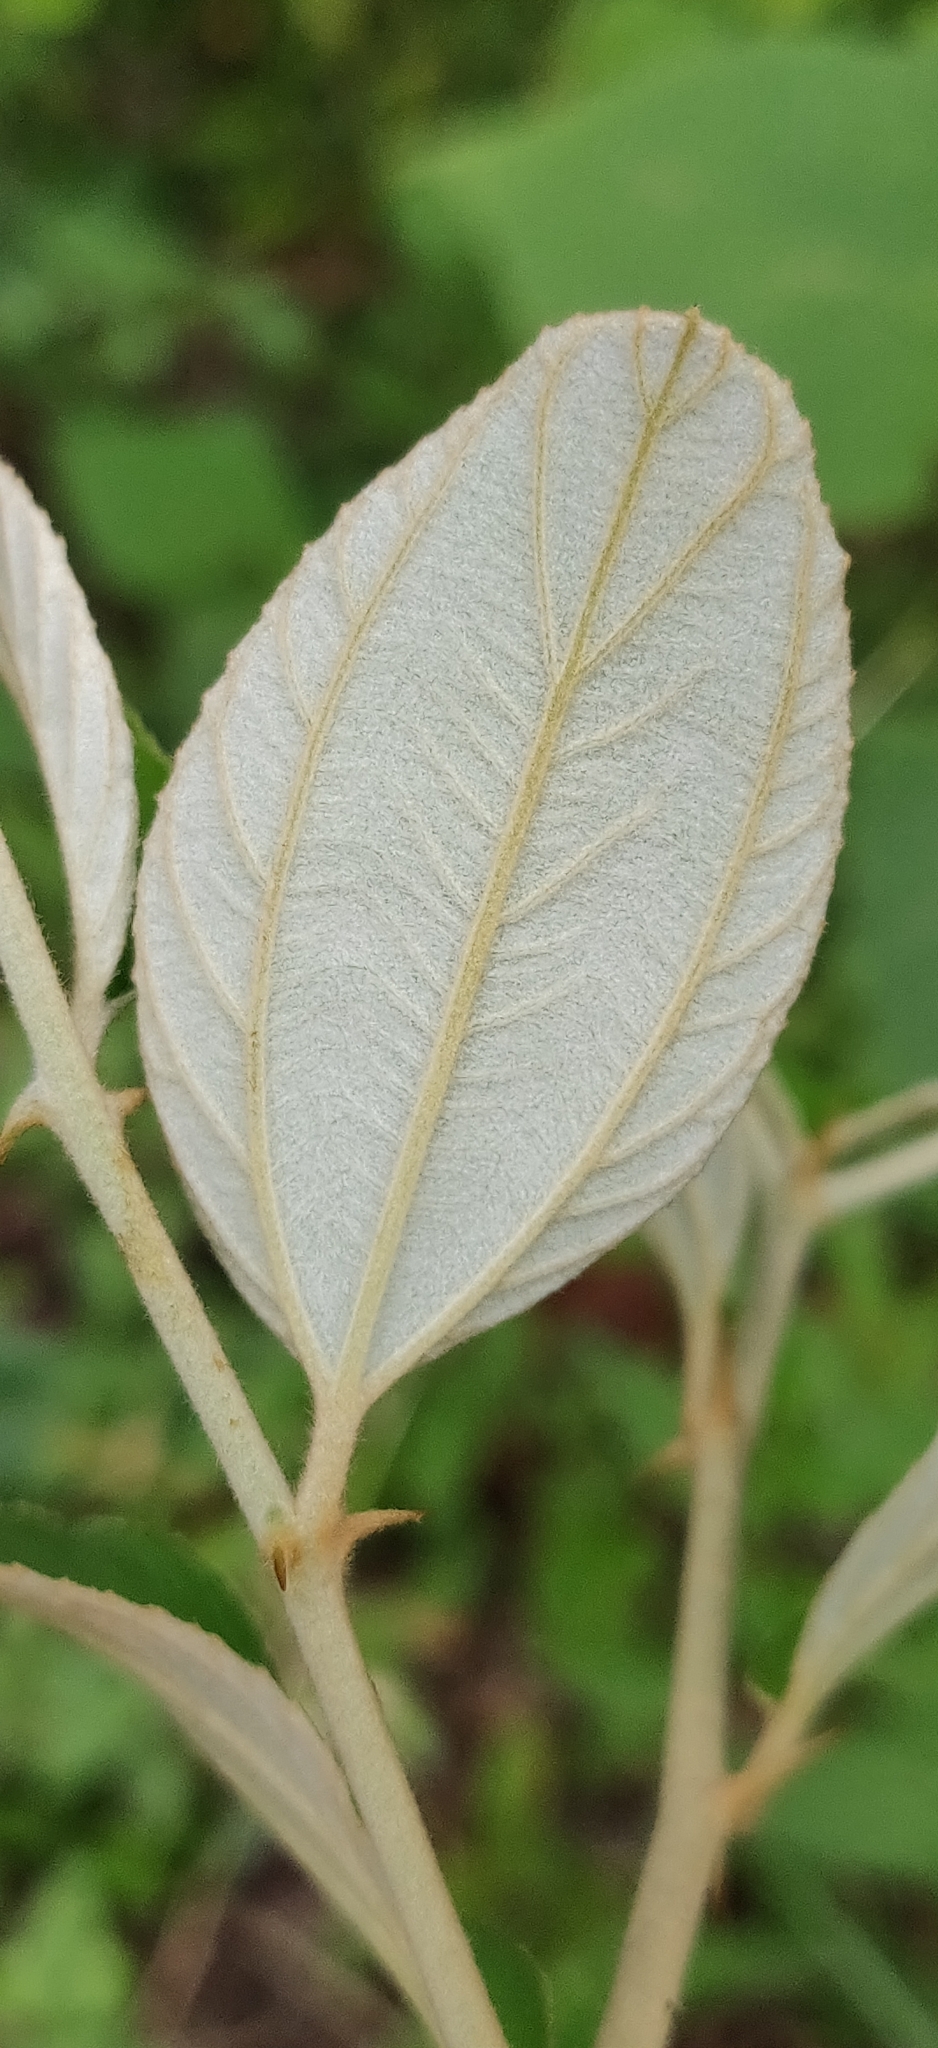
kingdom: Plantae
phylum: Tracheophyta
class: Magnoliopsida
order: Rosales
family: Rhamnaceae
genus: Ziziphus
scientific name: Ziziphus mauritiana
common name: Indian jujube
